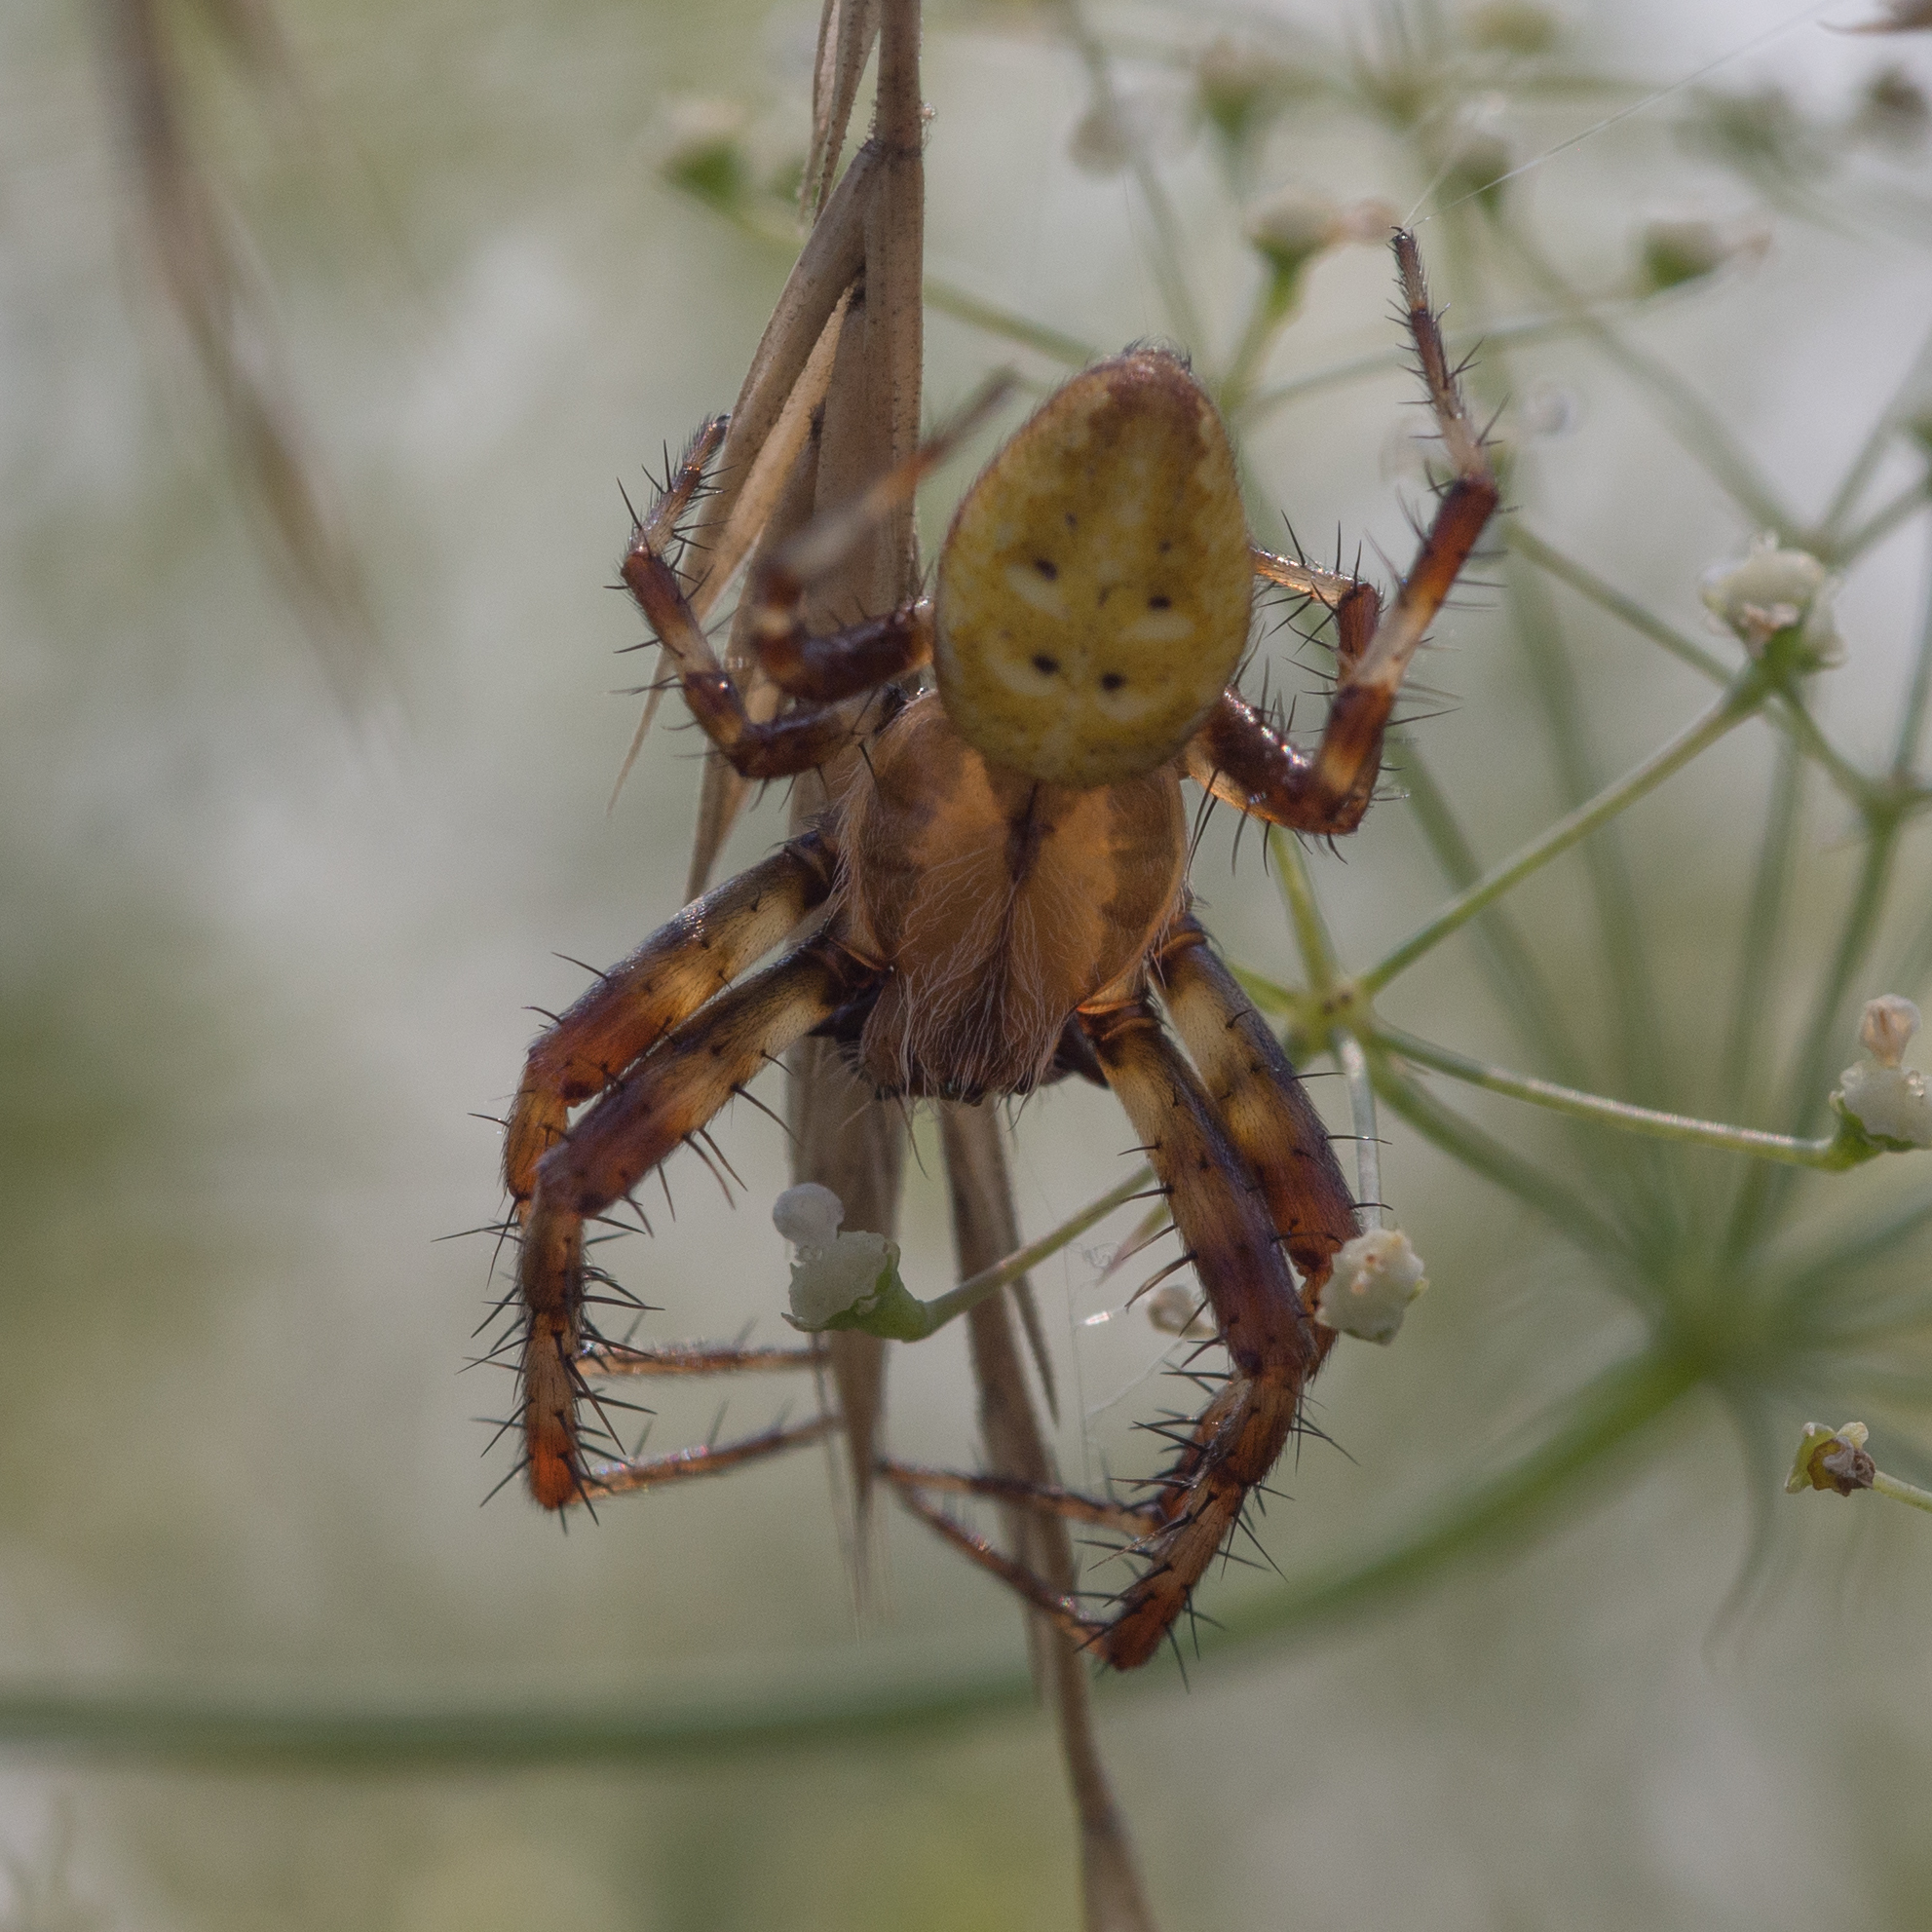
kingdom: Animalia
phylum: Arthropoda
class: Arachnida
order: Araneae
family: Araneidae
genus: Araneus
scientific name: Araneus quadratus
